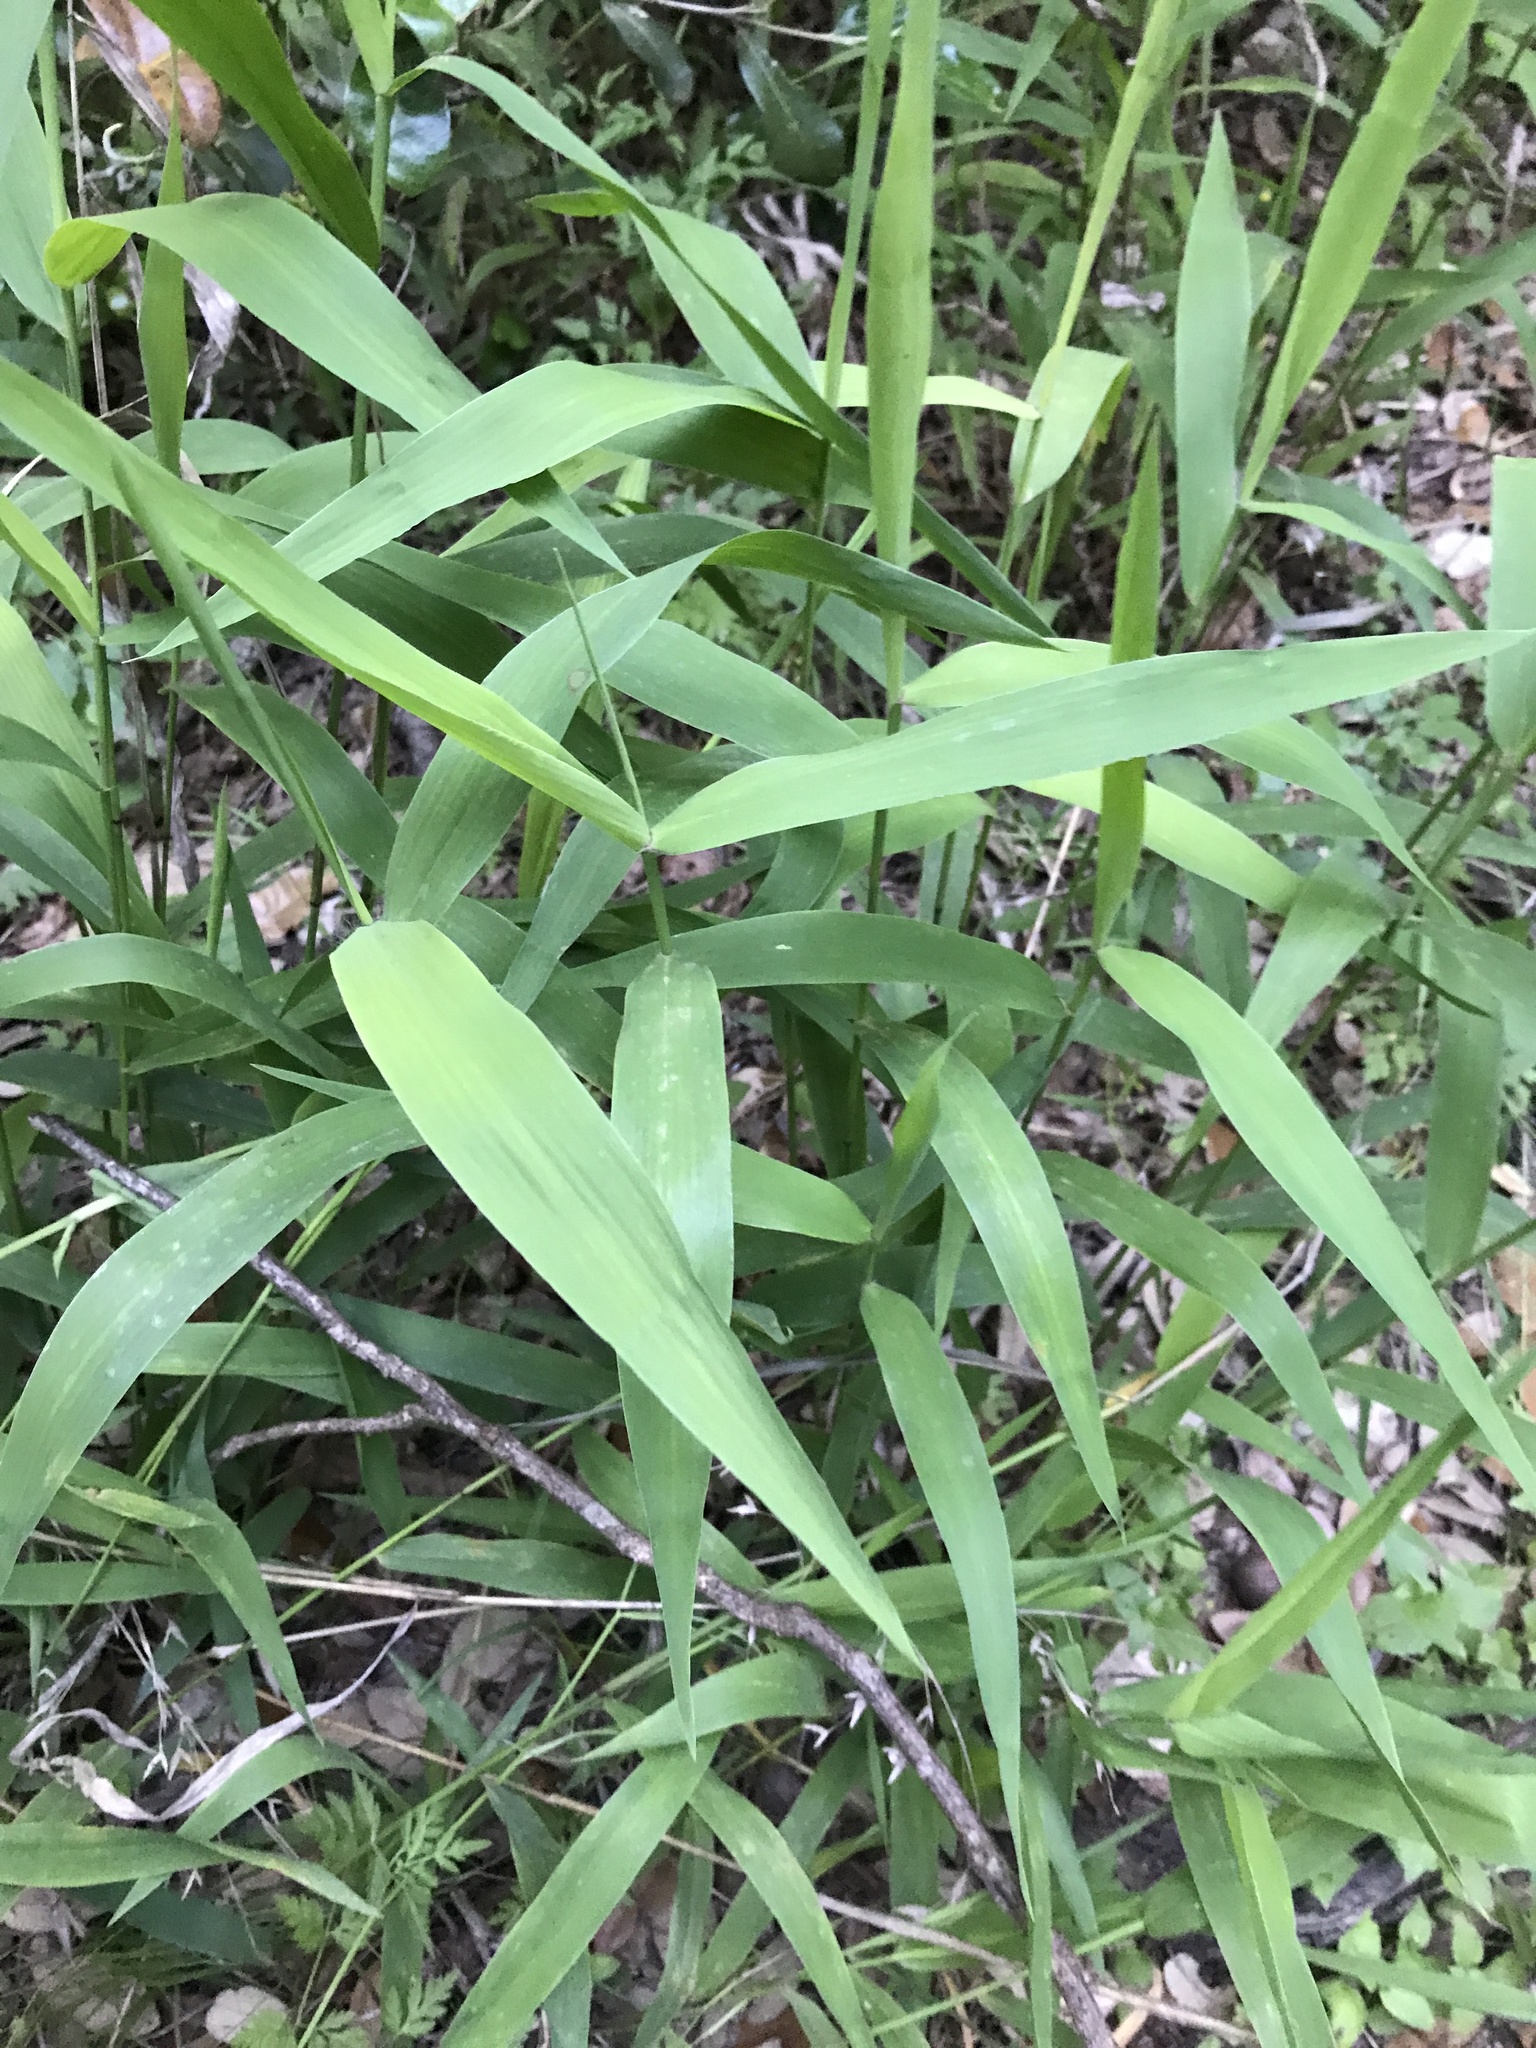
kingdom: Plantae
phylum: Tracheophyta
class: Liliopsida
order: Poales
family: Poaceae
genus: Chasmanthium
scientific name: Chasmanthium latifolium
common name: Broad-leaved chasmanthium
